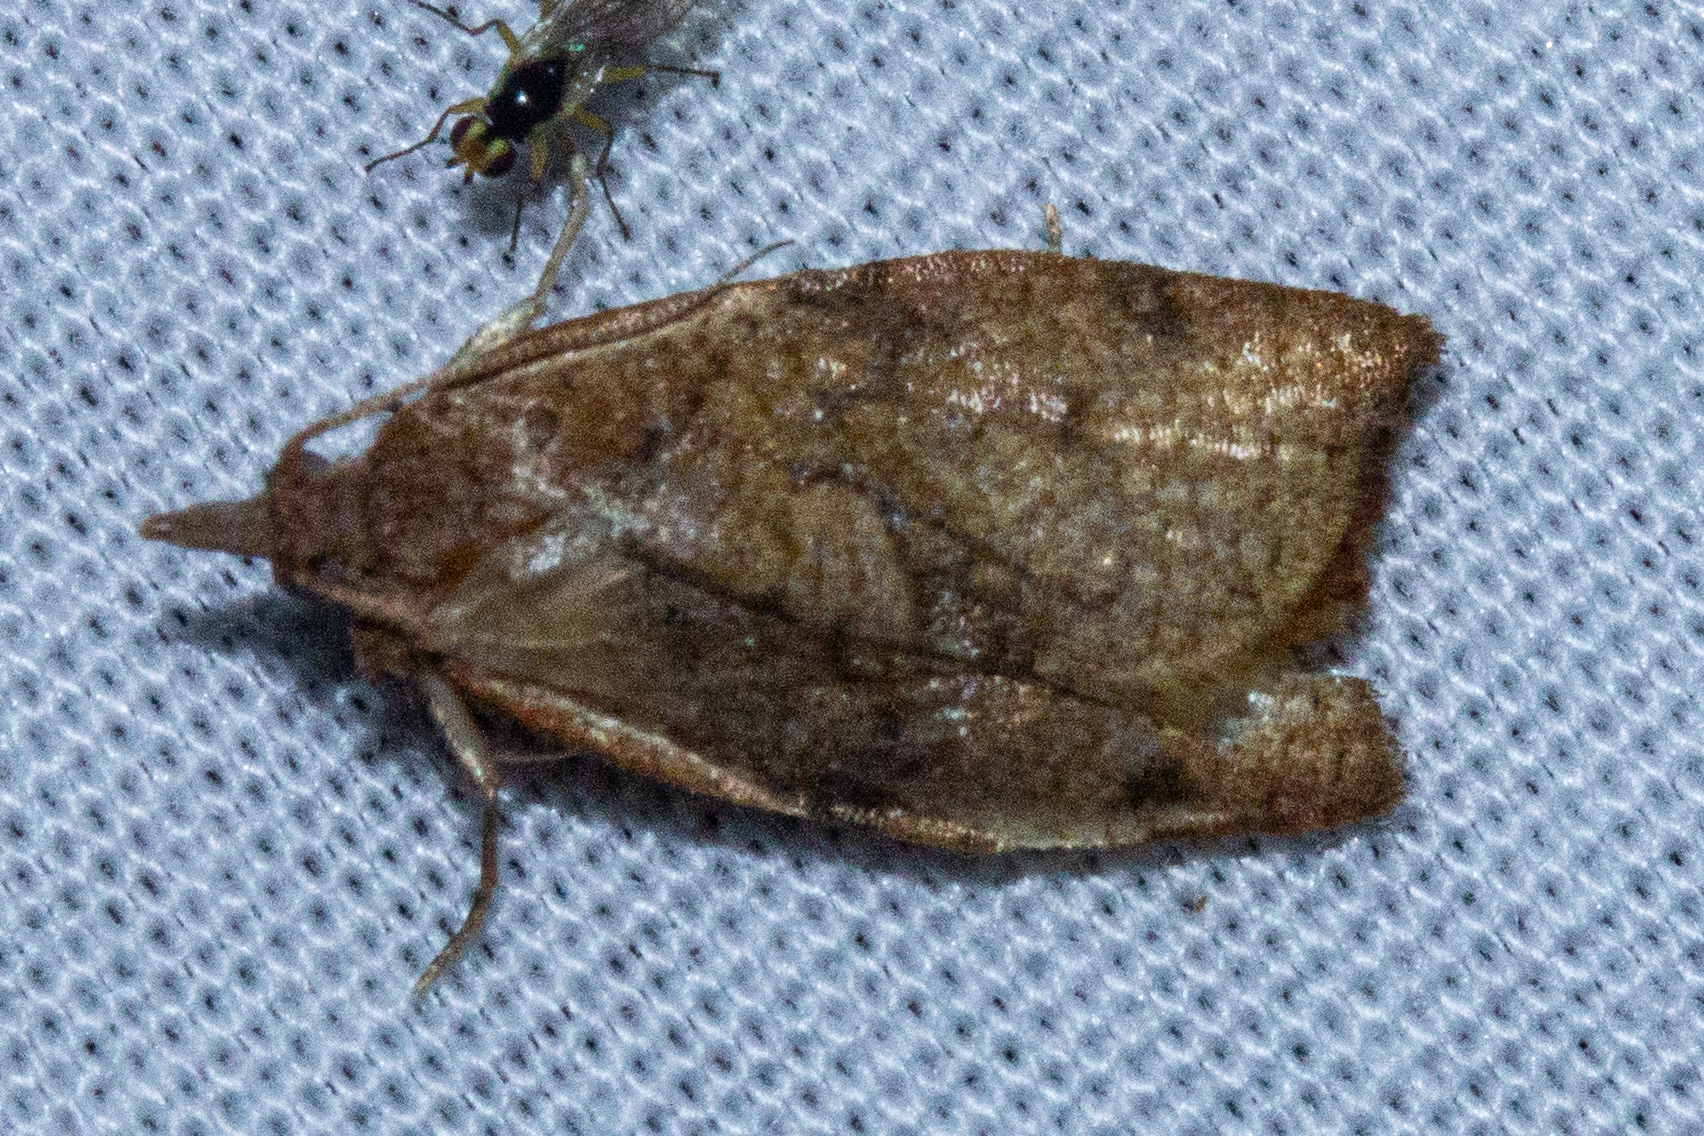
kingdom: Animalia
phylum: Arthropoda
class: Insecta
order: Lepidoptera
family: Tortricidae
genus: Apoctena
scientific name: Apoctena flavescens
